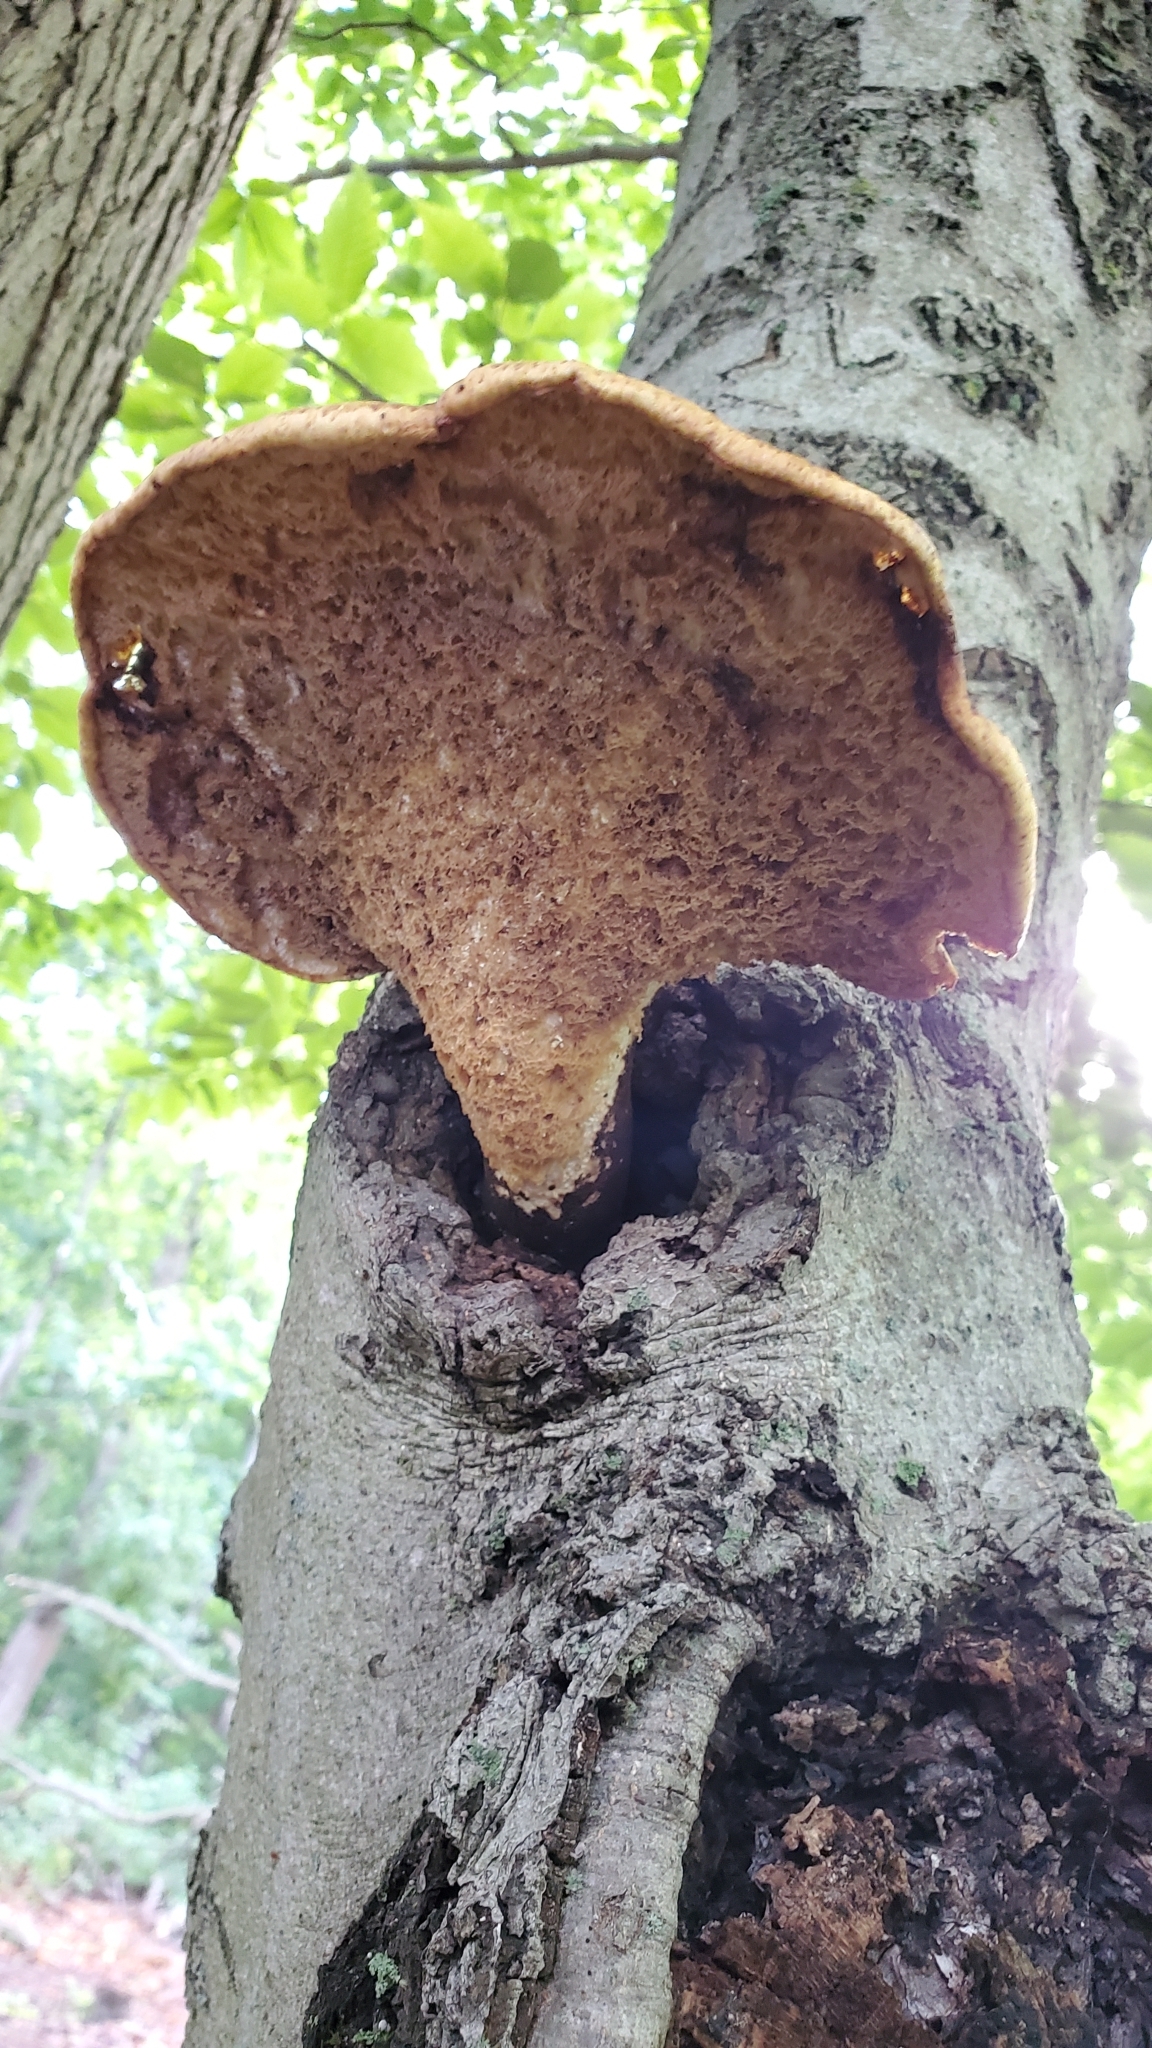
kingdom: Fungi
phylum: Basidiomycota
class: Agaricomycetes
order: Polyporales
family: Polyporaceae
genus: Cerioporus
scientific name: Cerioporus squamosus
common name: Dryad's saddle
